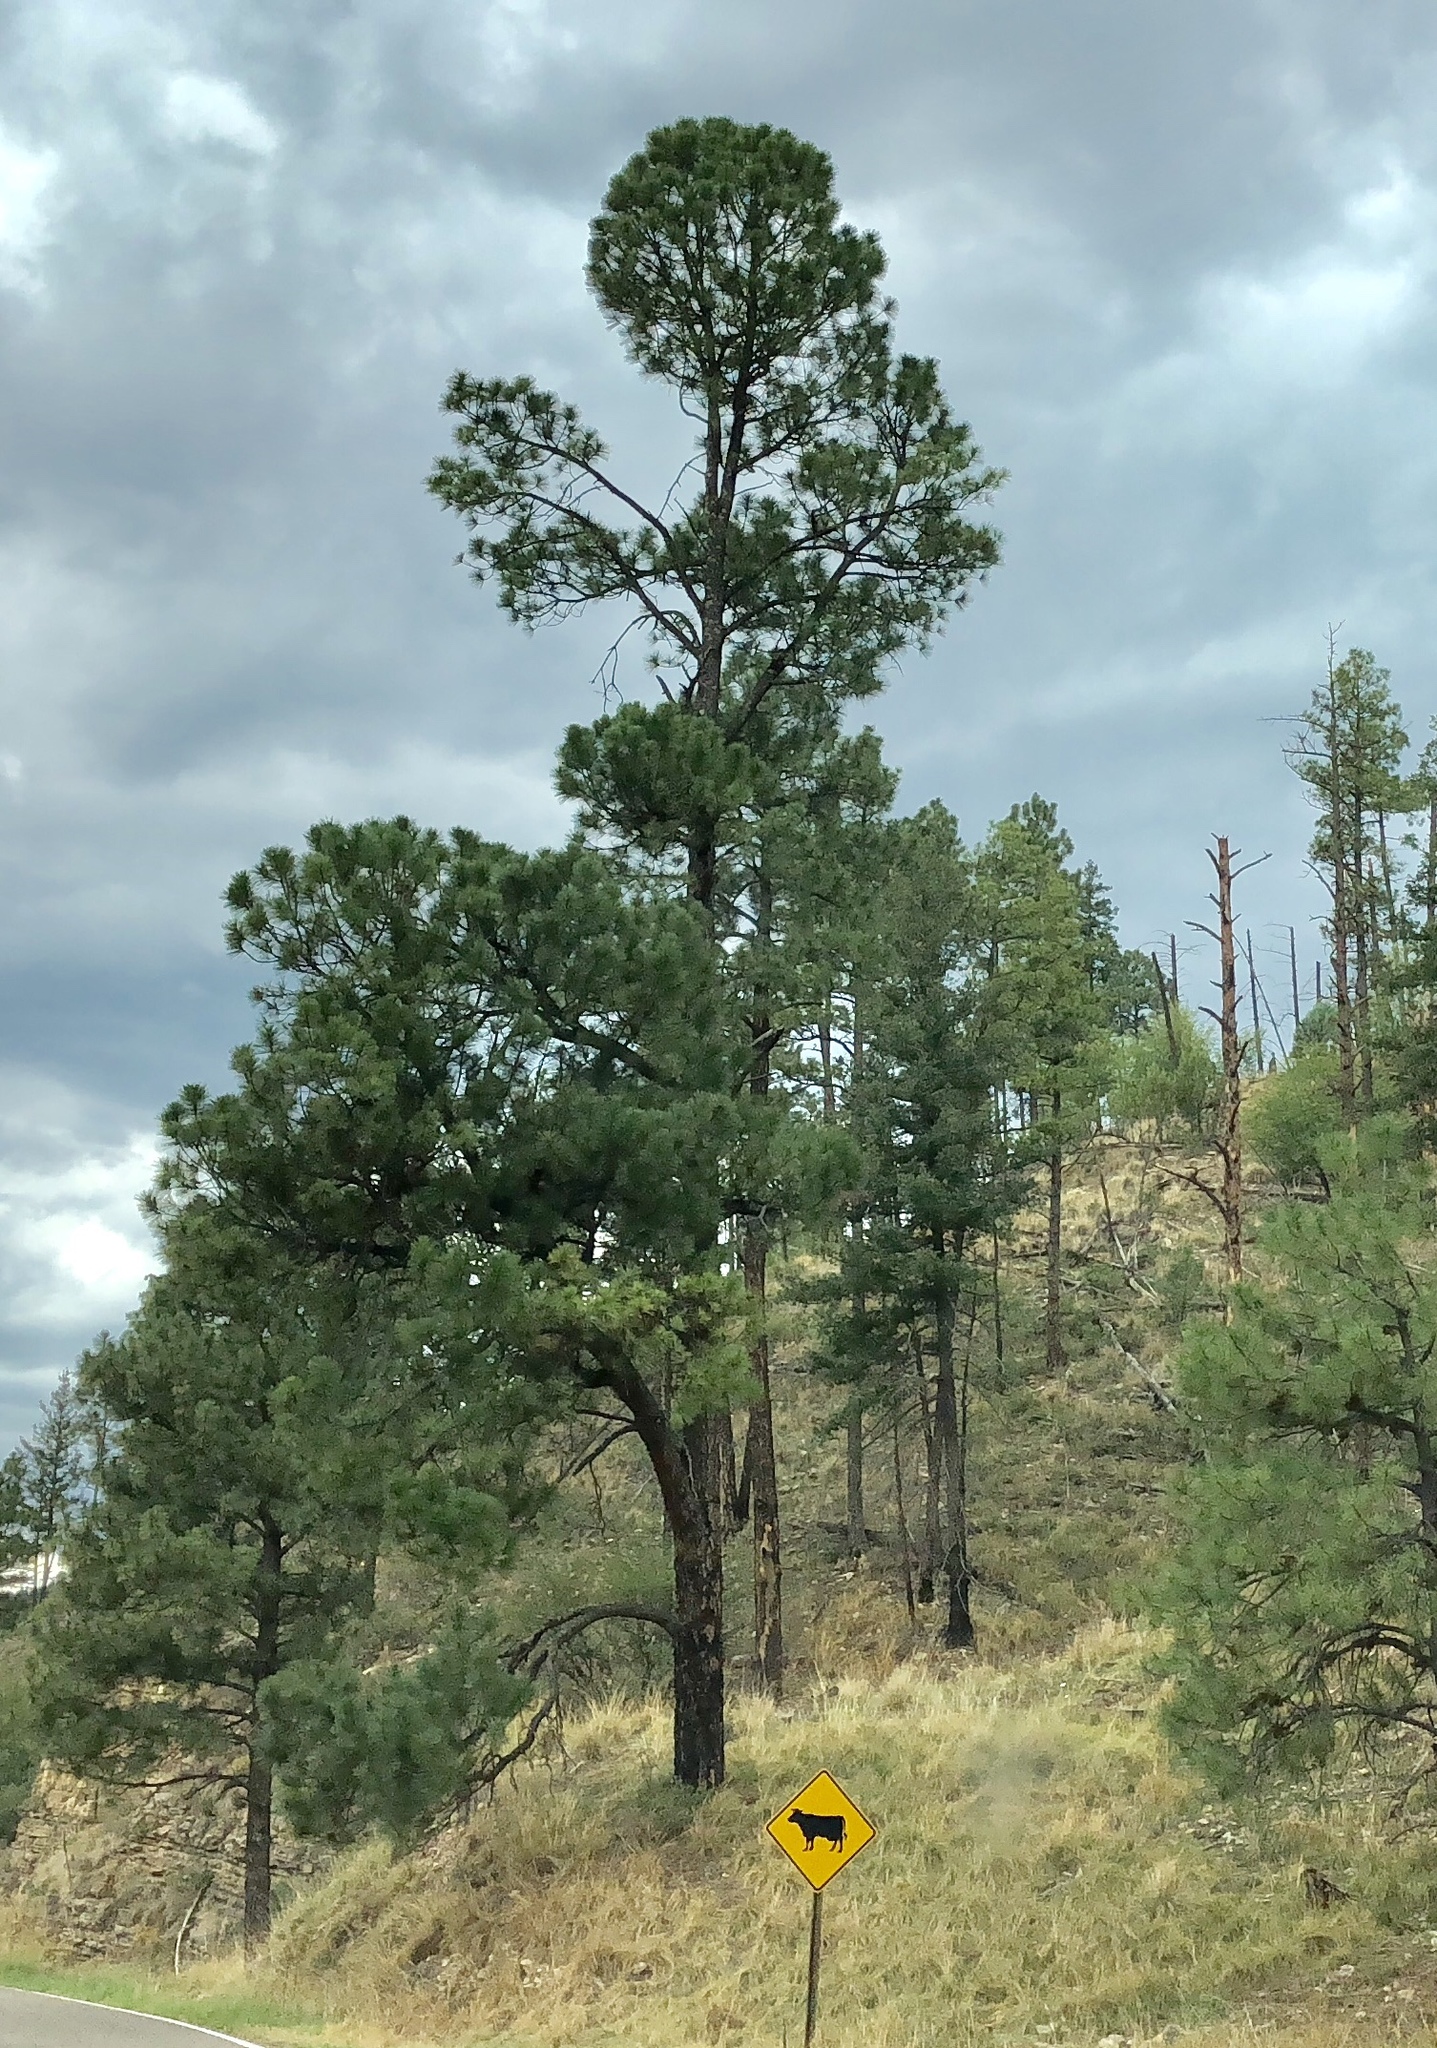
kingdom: Plantae
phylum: Tracheophyta
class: Pinopsida
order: Pinales
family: Pinaceae
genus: Pinus
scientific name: Pinus ponderosa
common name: Western yellow-pine
